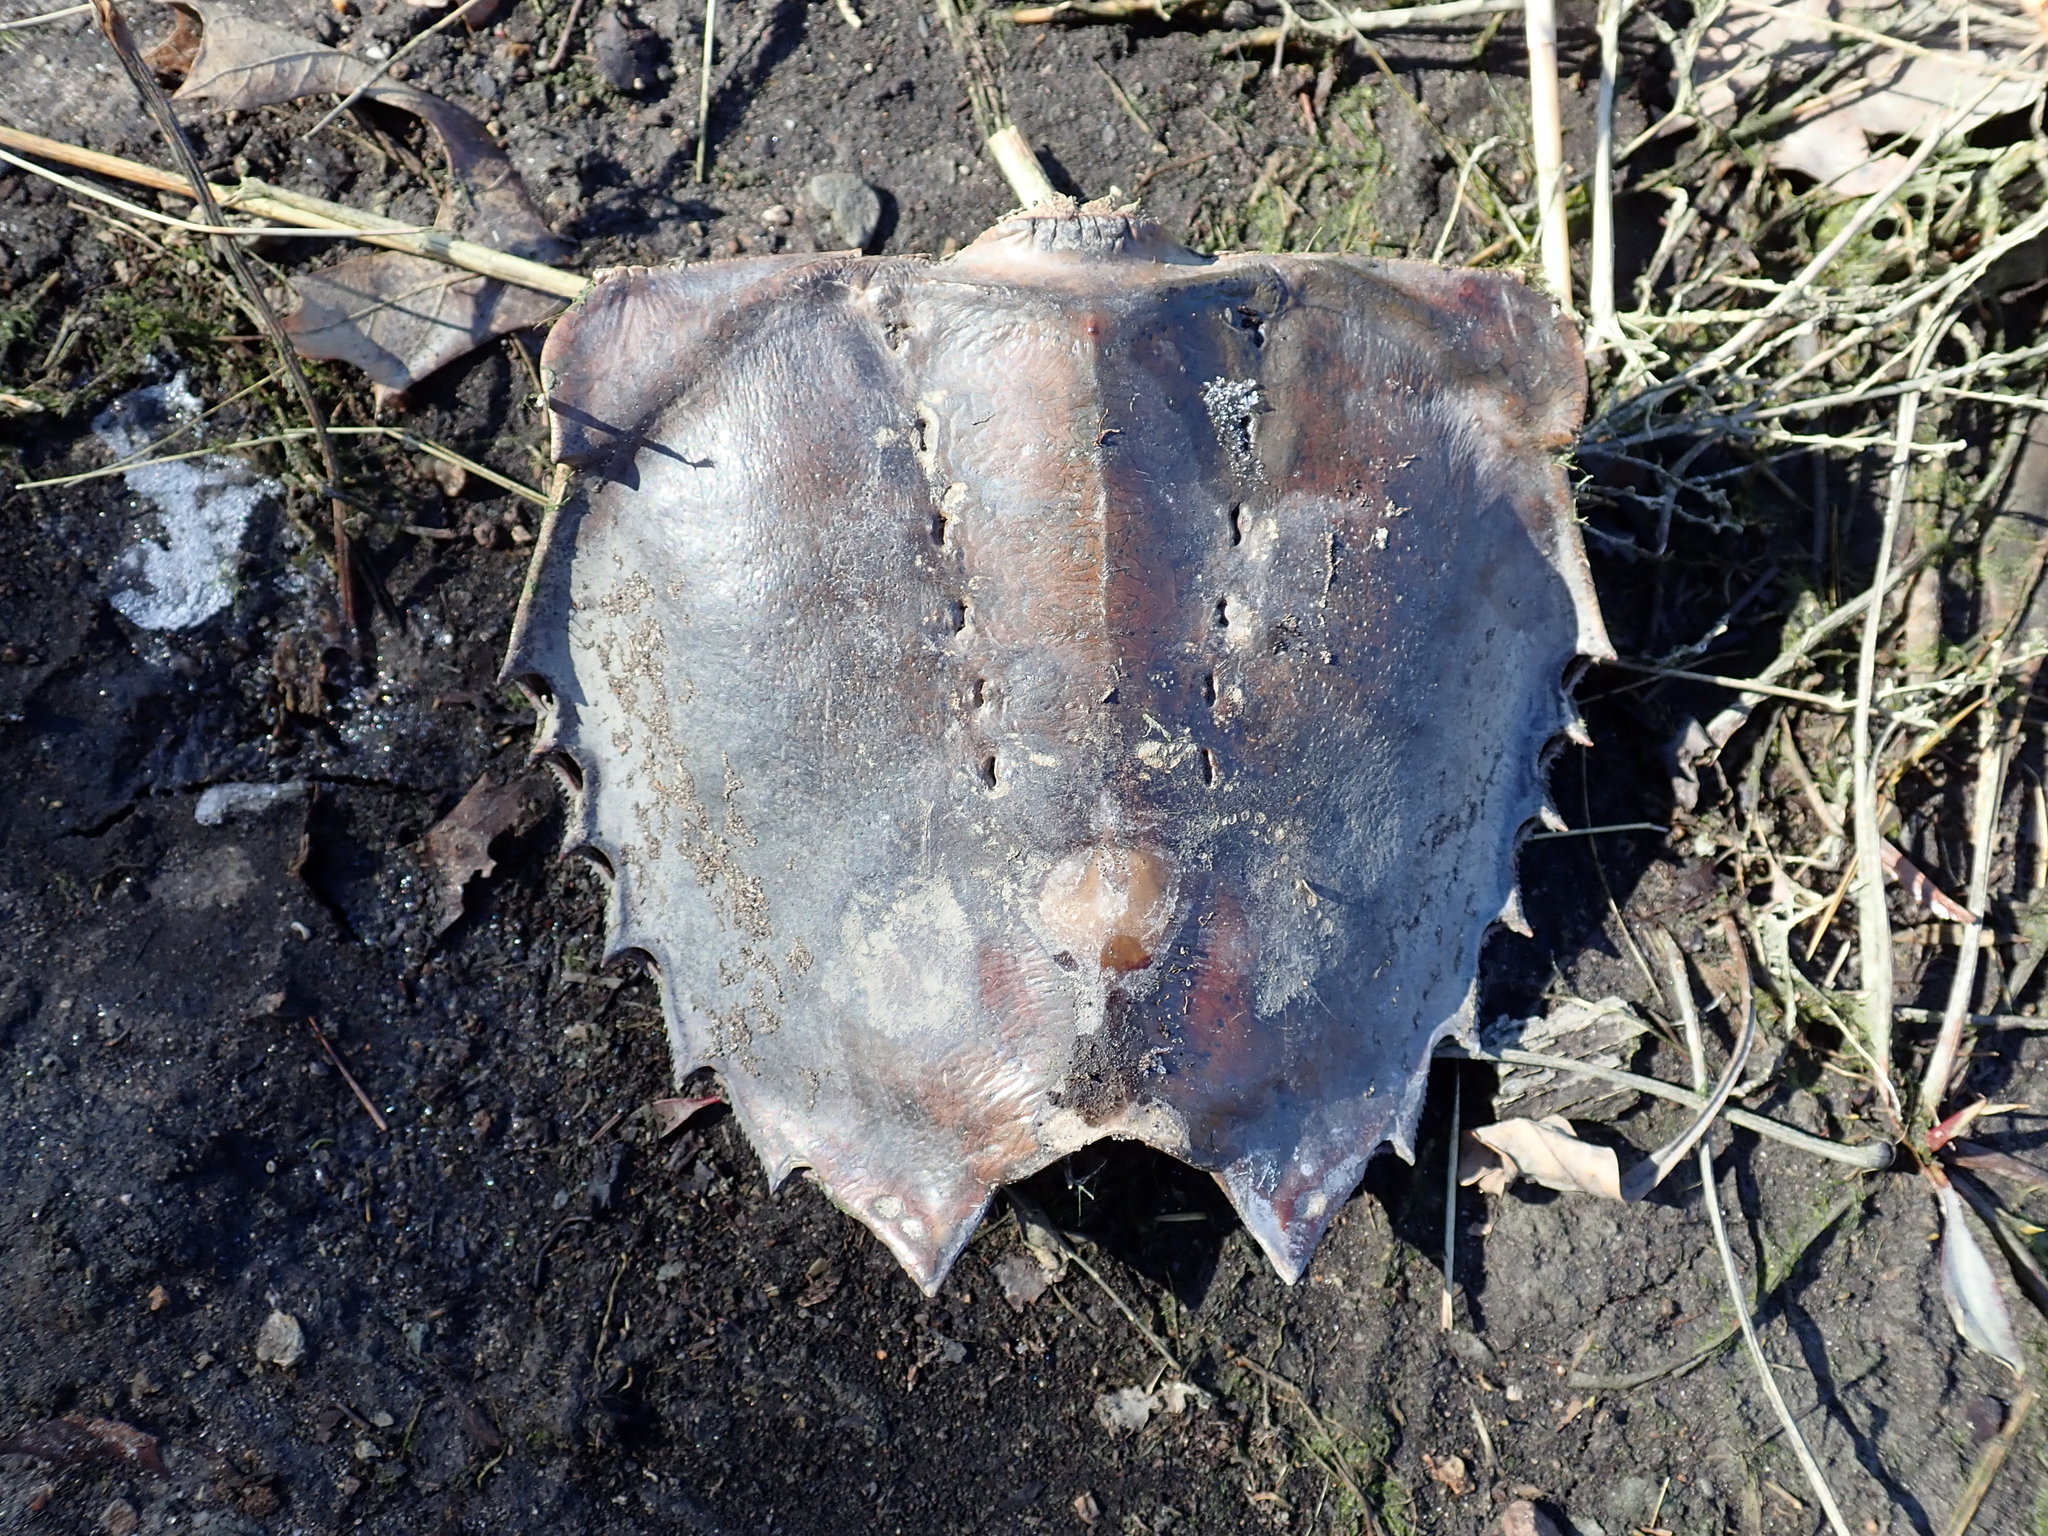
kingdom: Animalia
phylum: Arthropoda
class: Merostomata
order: Xiphosurida
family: Limulidae
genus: Limulus
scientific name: Limulus polyphemus
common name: Horseshoe crab
